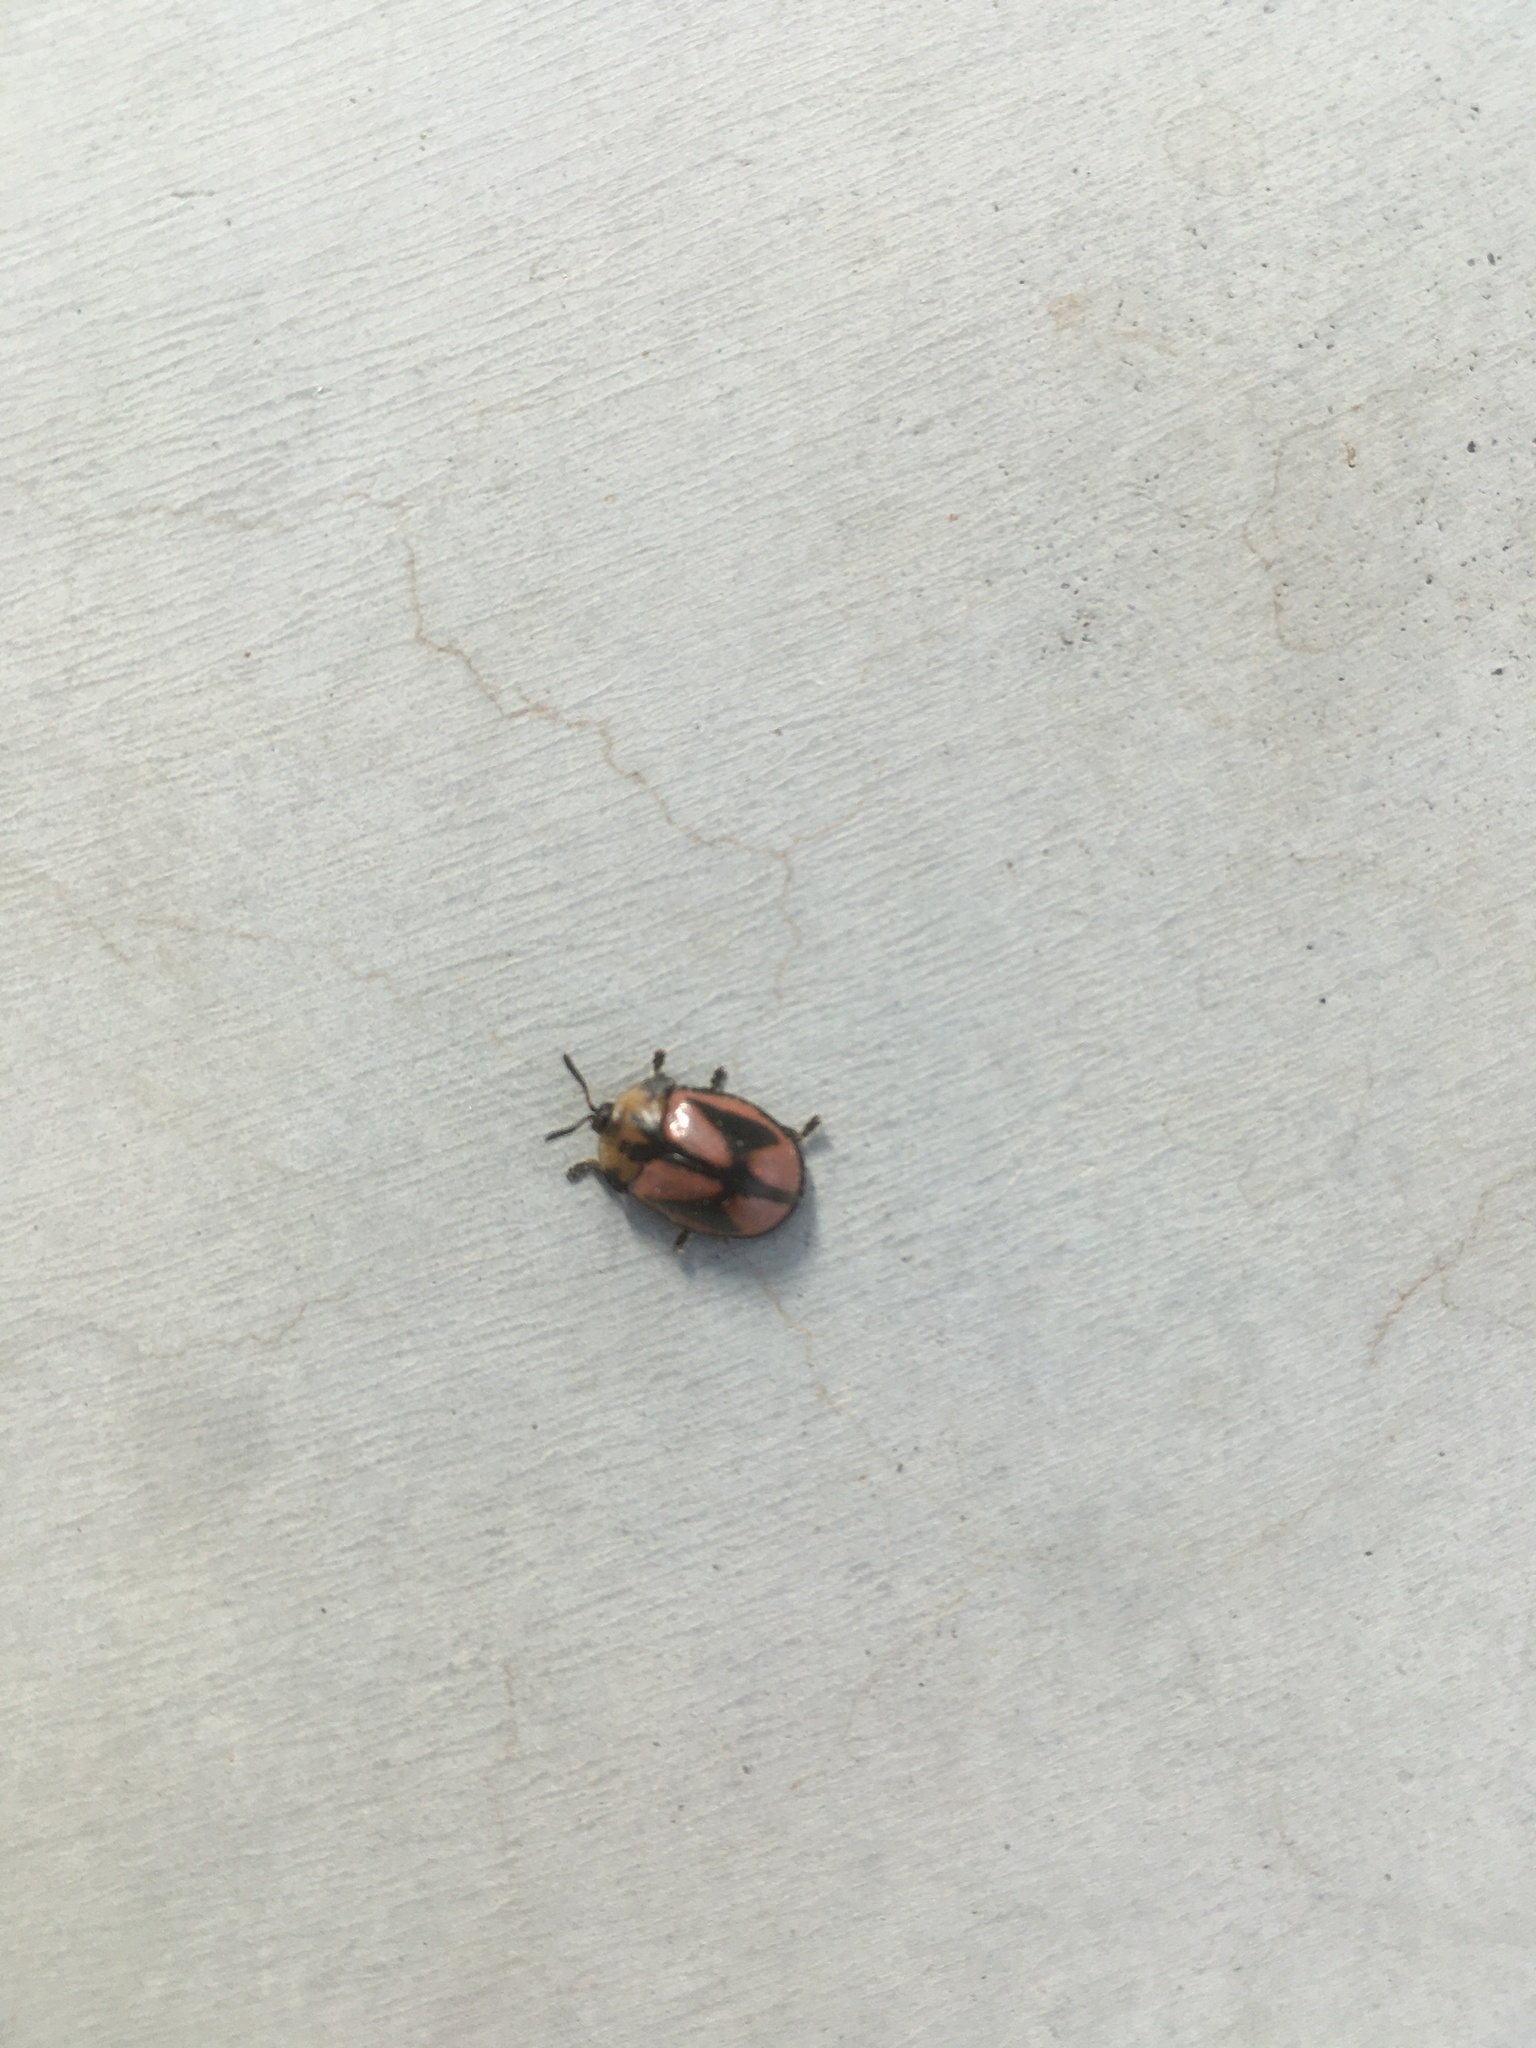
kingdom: Animalia
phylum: Arthropoda
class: Insecta
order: Coleoptera
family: Chrysomelidae
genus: Chelymorpha
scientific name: Chelymorpha varians
